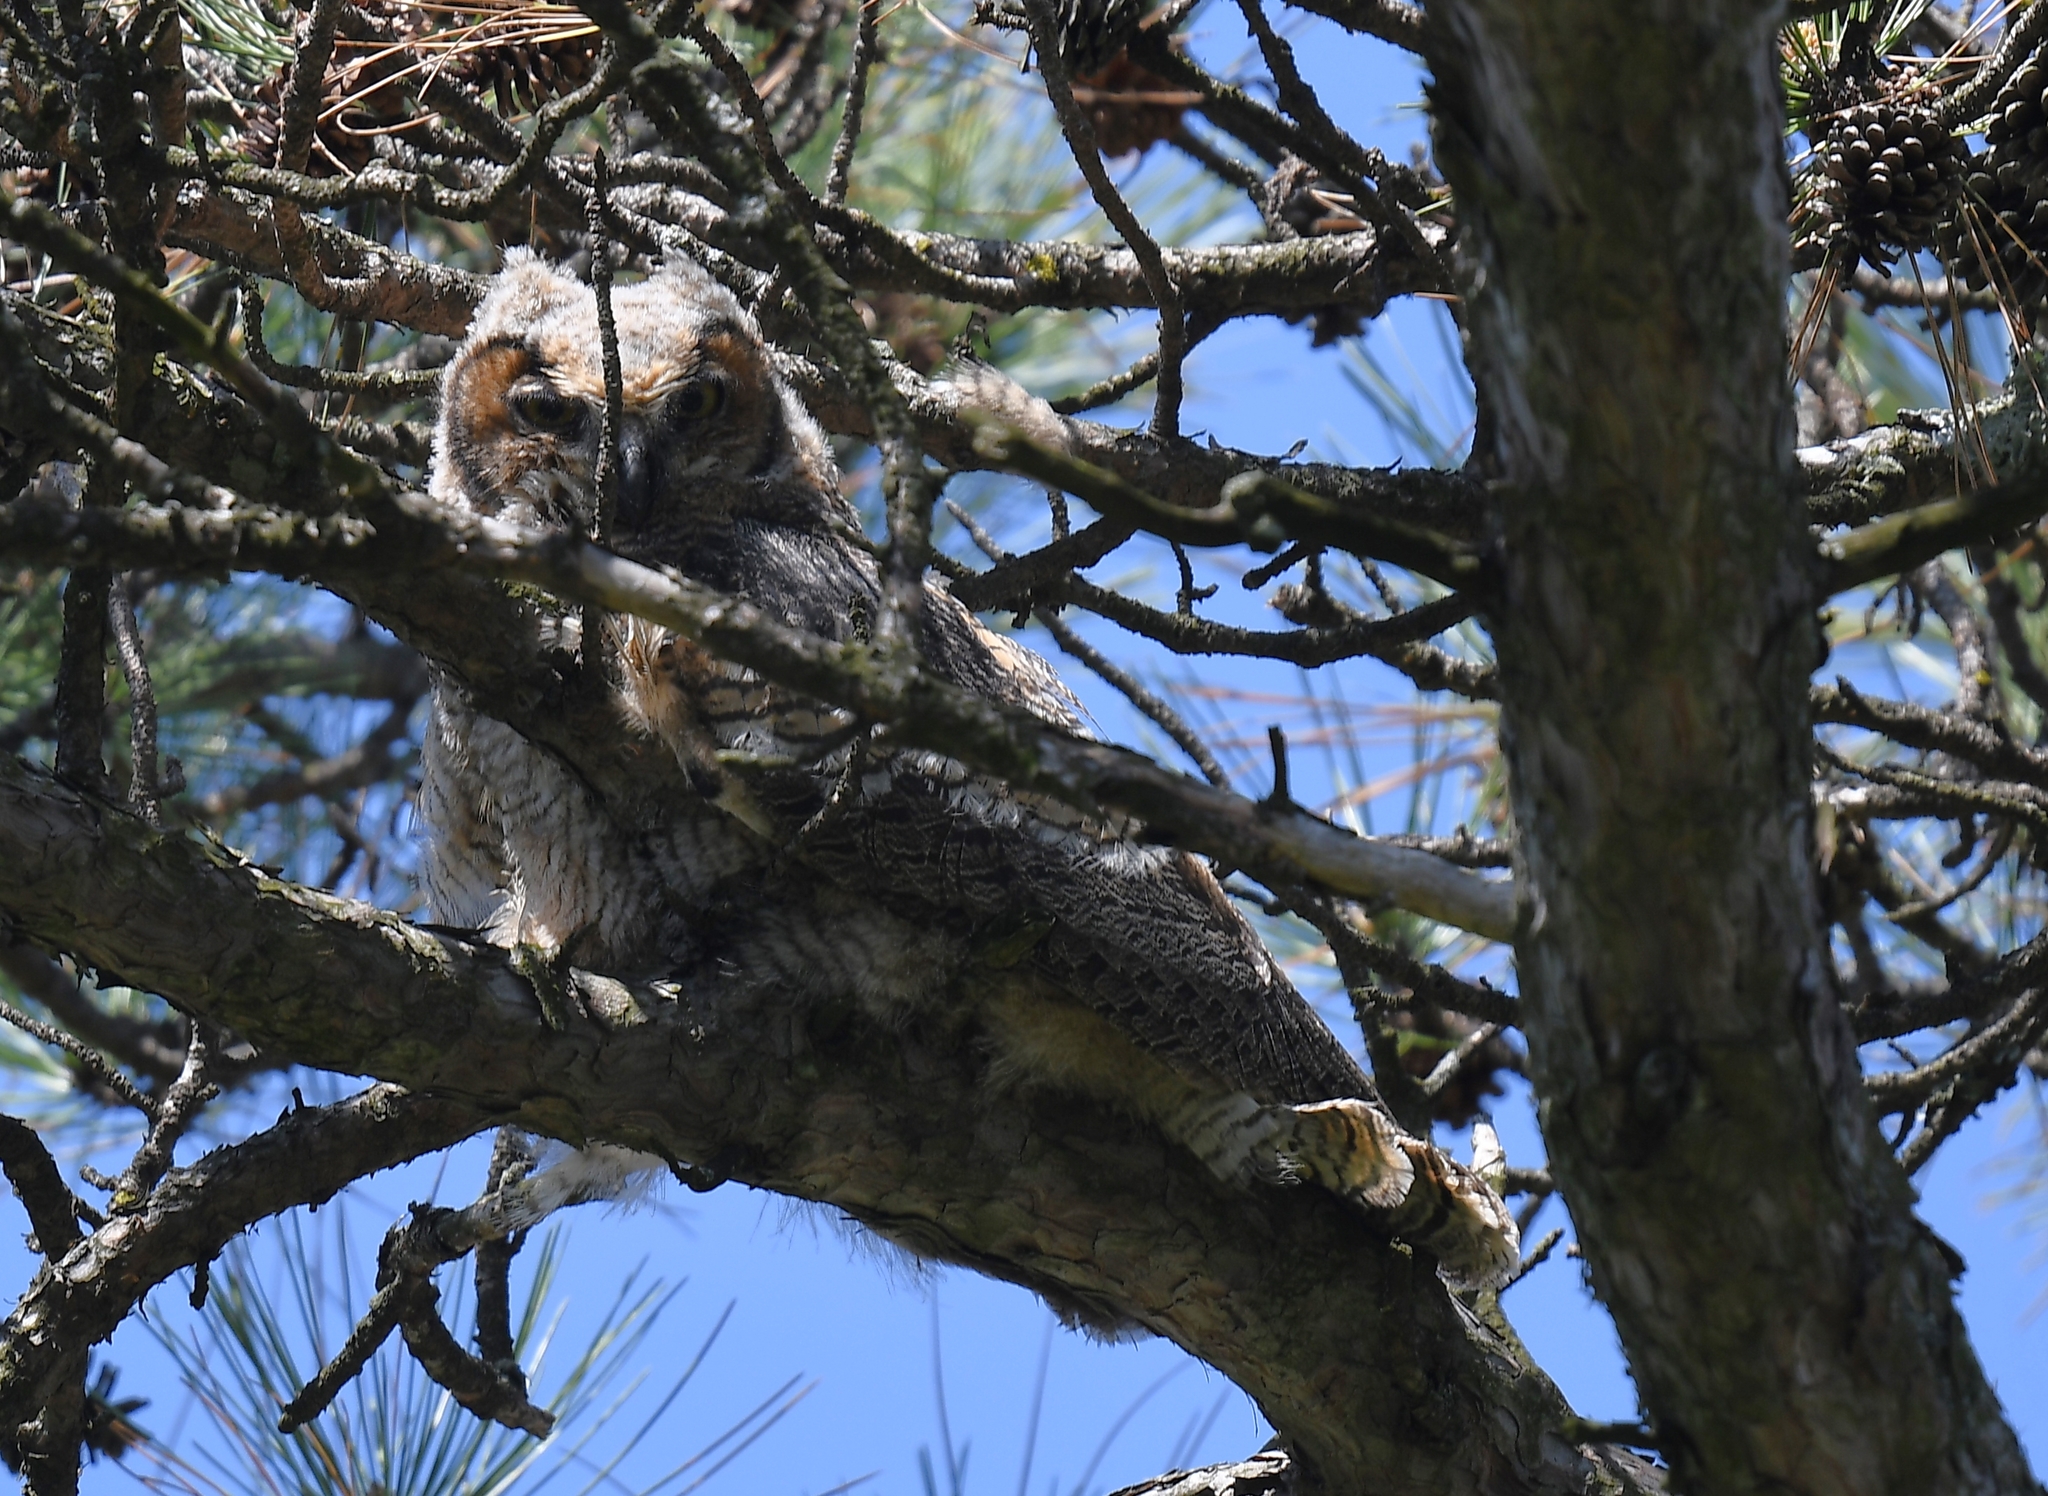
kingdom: Animalia
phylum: Chordata
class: Aves
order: Strigiformes
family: Strigidae
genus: Bubo
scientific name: Bubo virginianus
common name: Great horned owl
